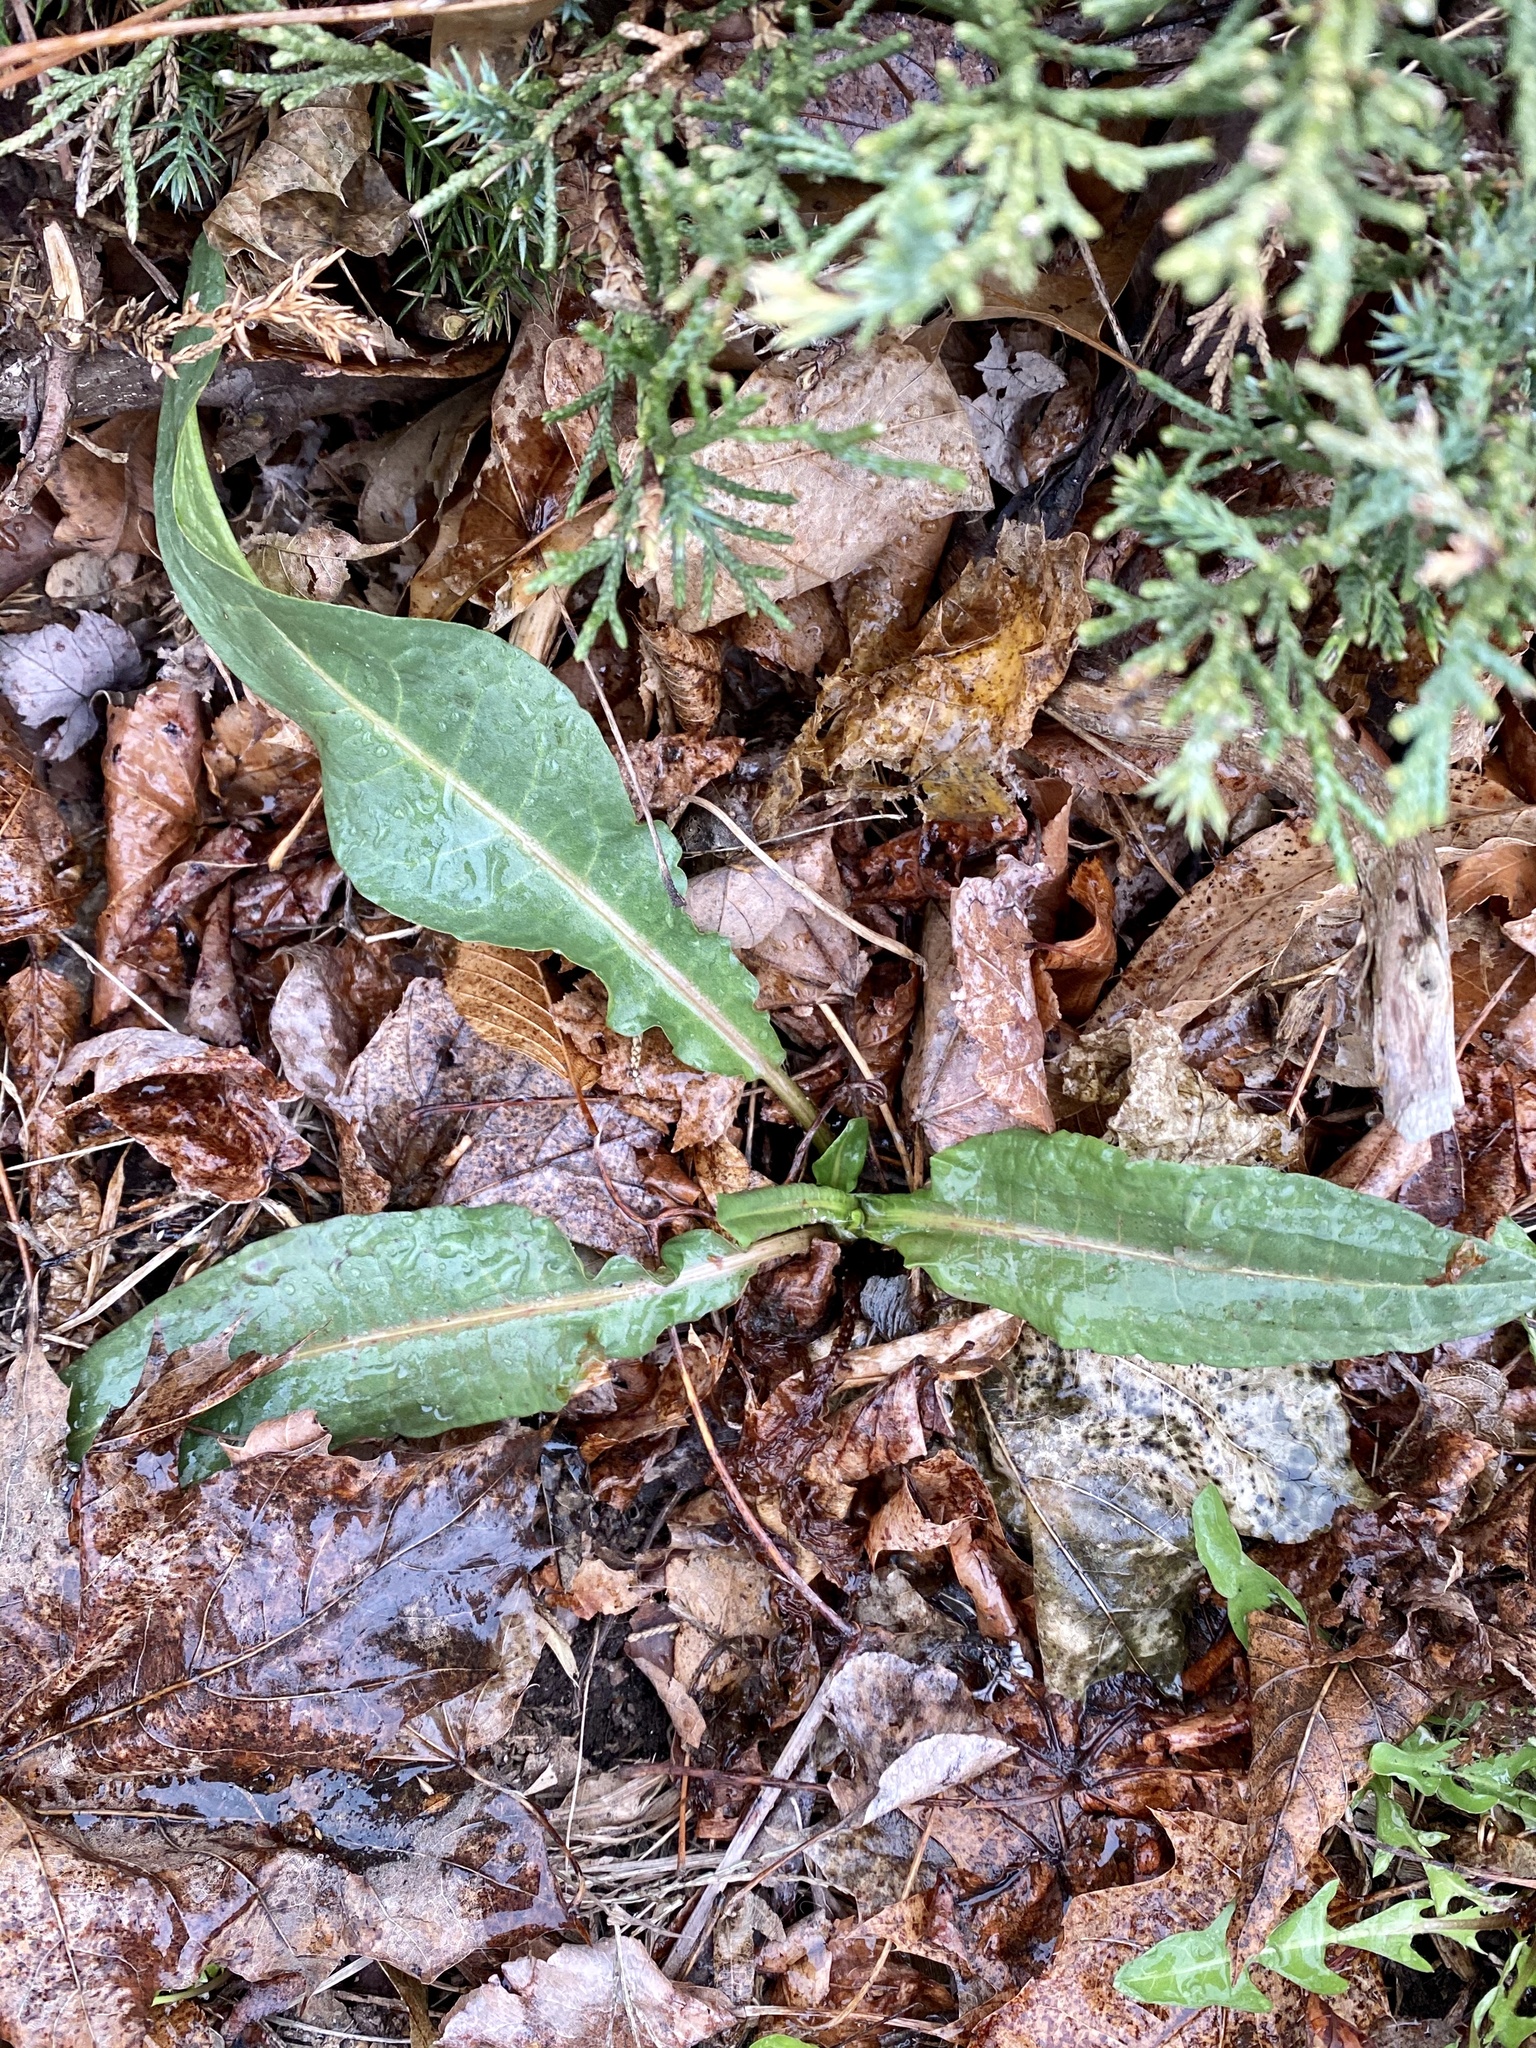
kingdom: Plantae
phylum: Tracheophyta
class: Magnoliopsida
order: Caryophyllales
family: Polygonaceae
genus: Rumex
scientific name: Rumex crispus
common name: Curled dock
